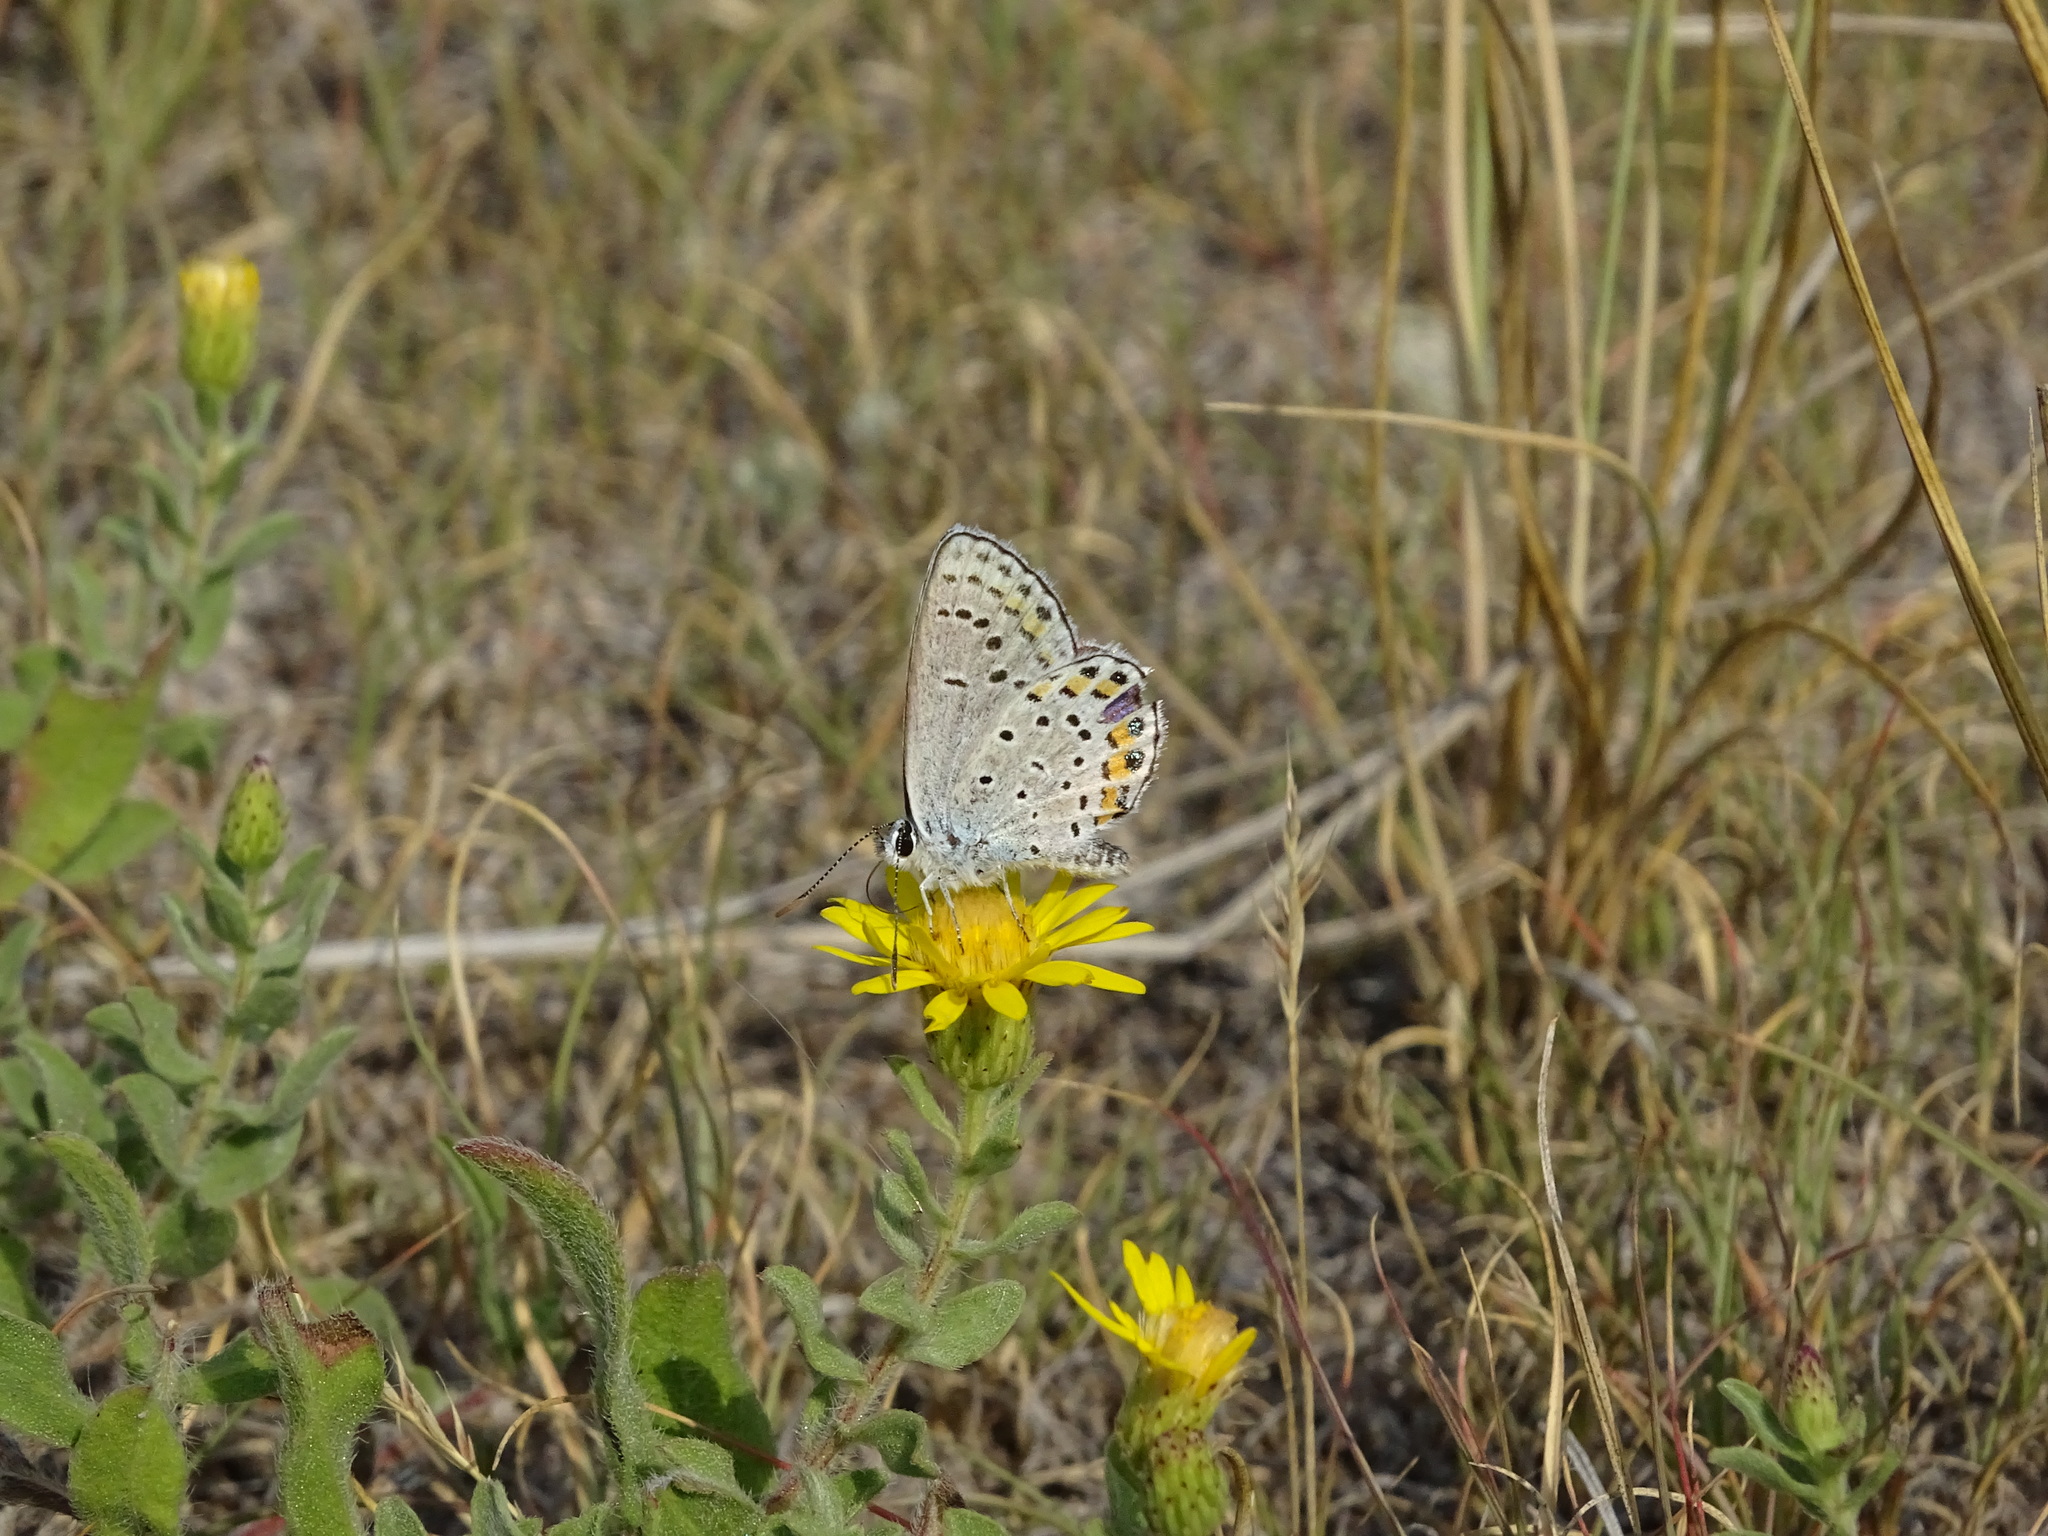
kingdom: Animalia
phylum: Arthropoda
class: Insecta
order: Lepidoptera
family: Lycaenidae
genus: Lycaeides
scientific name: Lycaeides melissa
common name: Melissa blue
